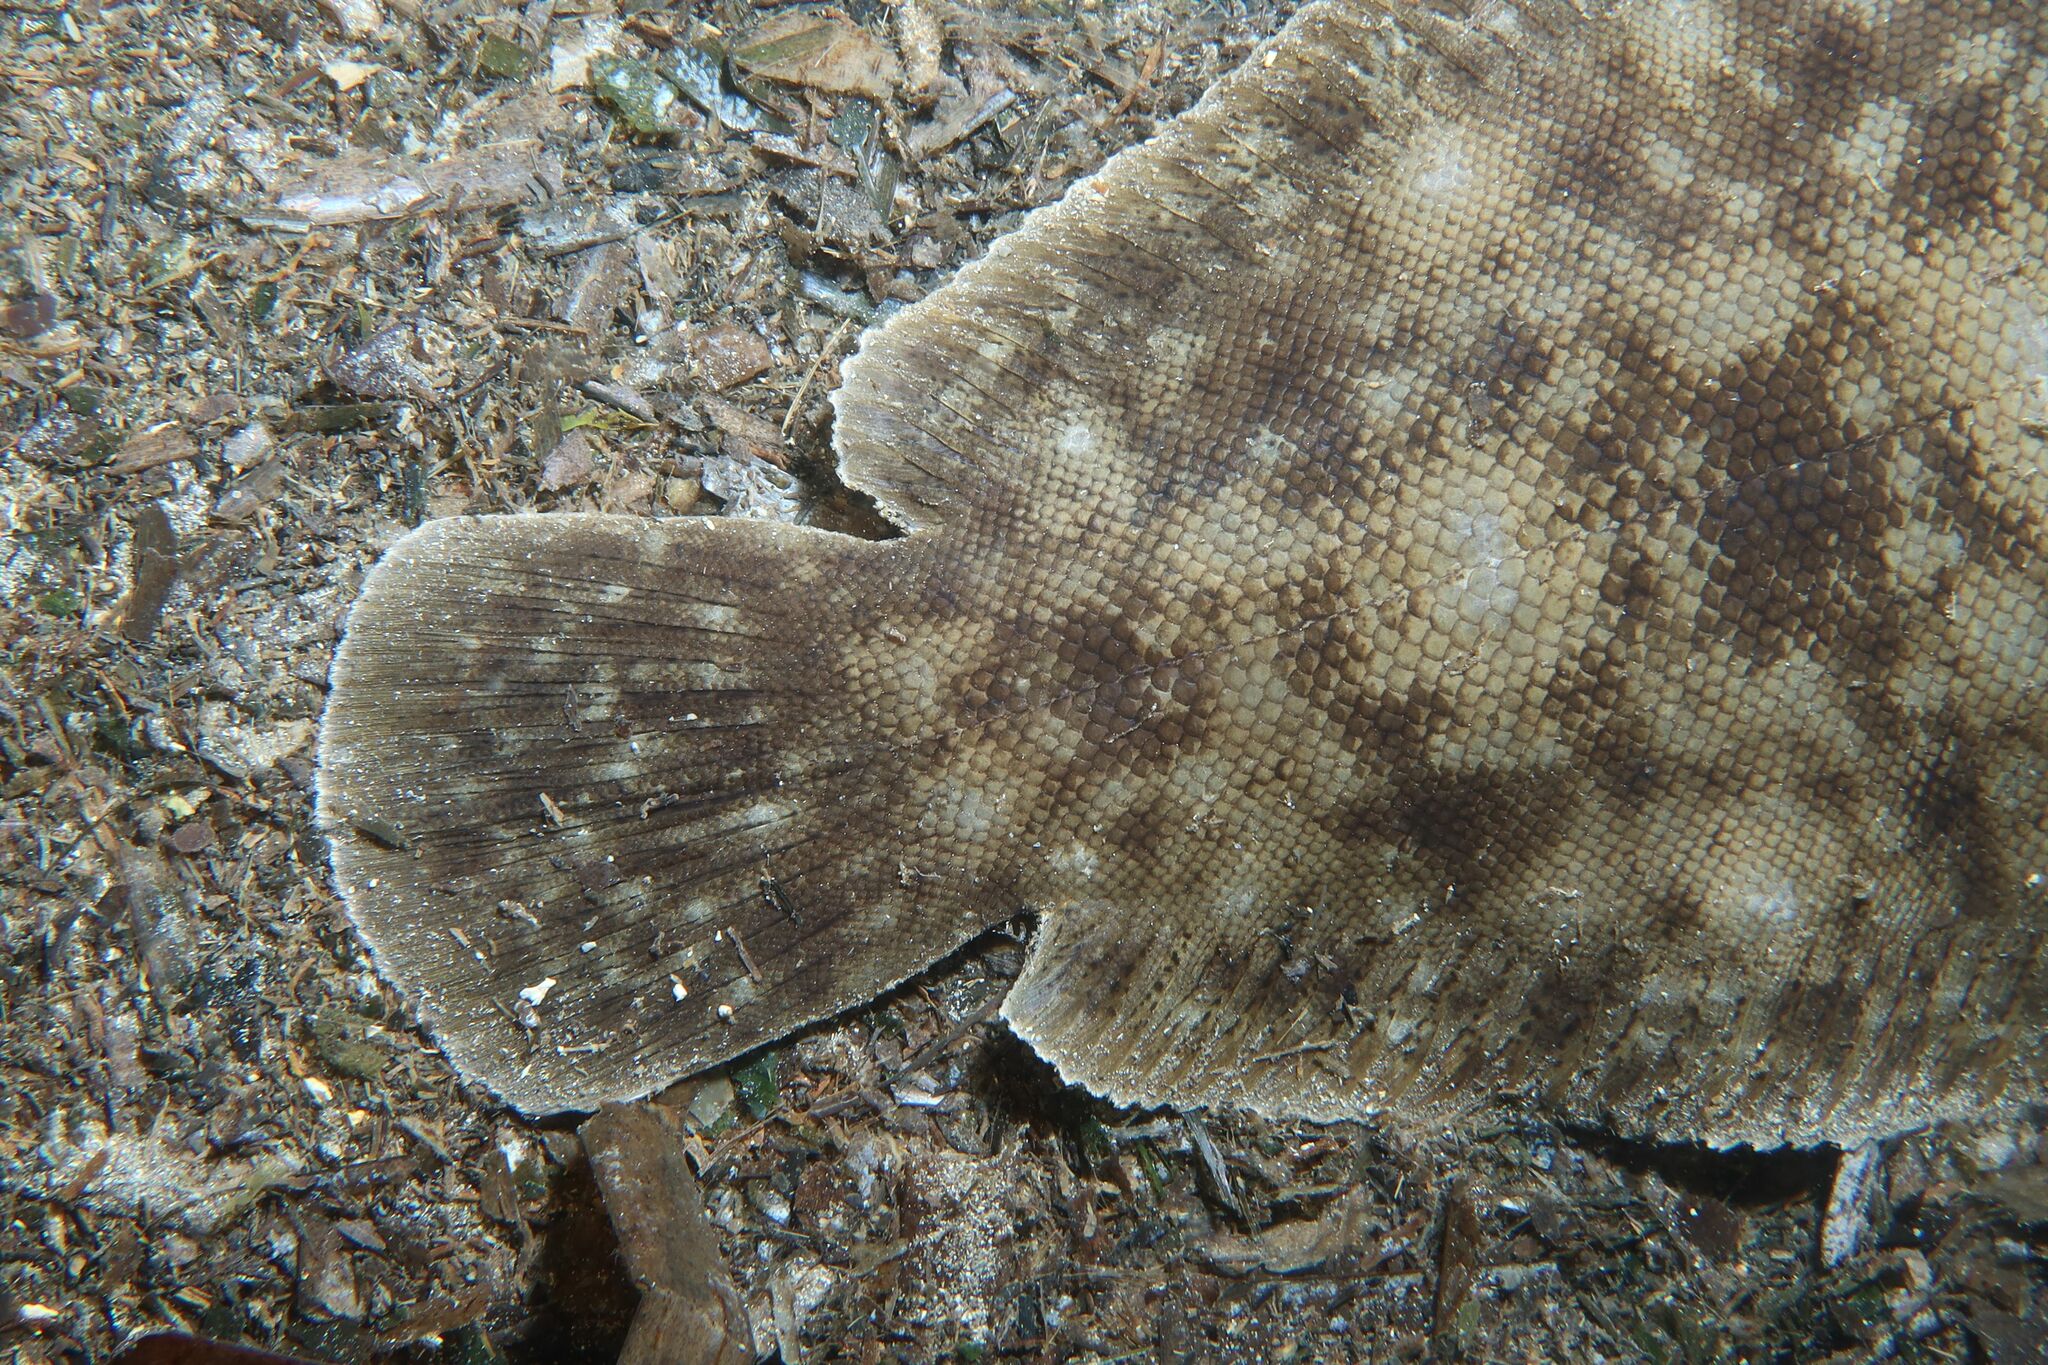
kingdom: Animalia
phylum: Chordata
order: Pleuronectiformes
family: Soleidae
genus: Solea
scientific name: Solea aegyptiaca
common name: Egyptian sole
